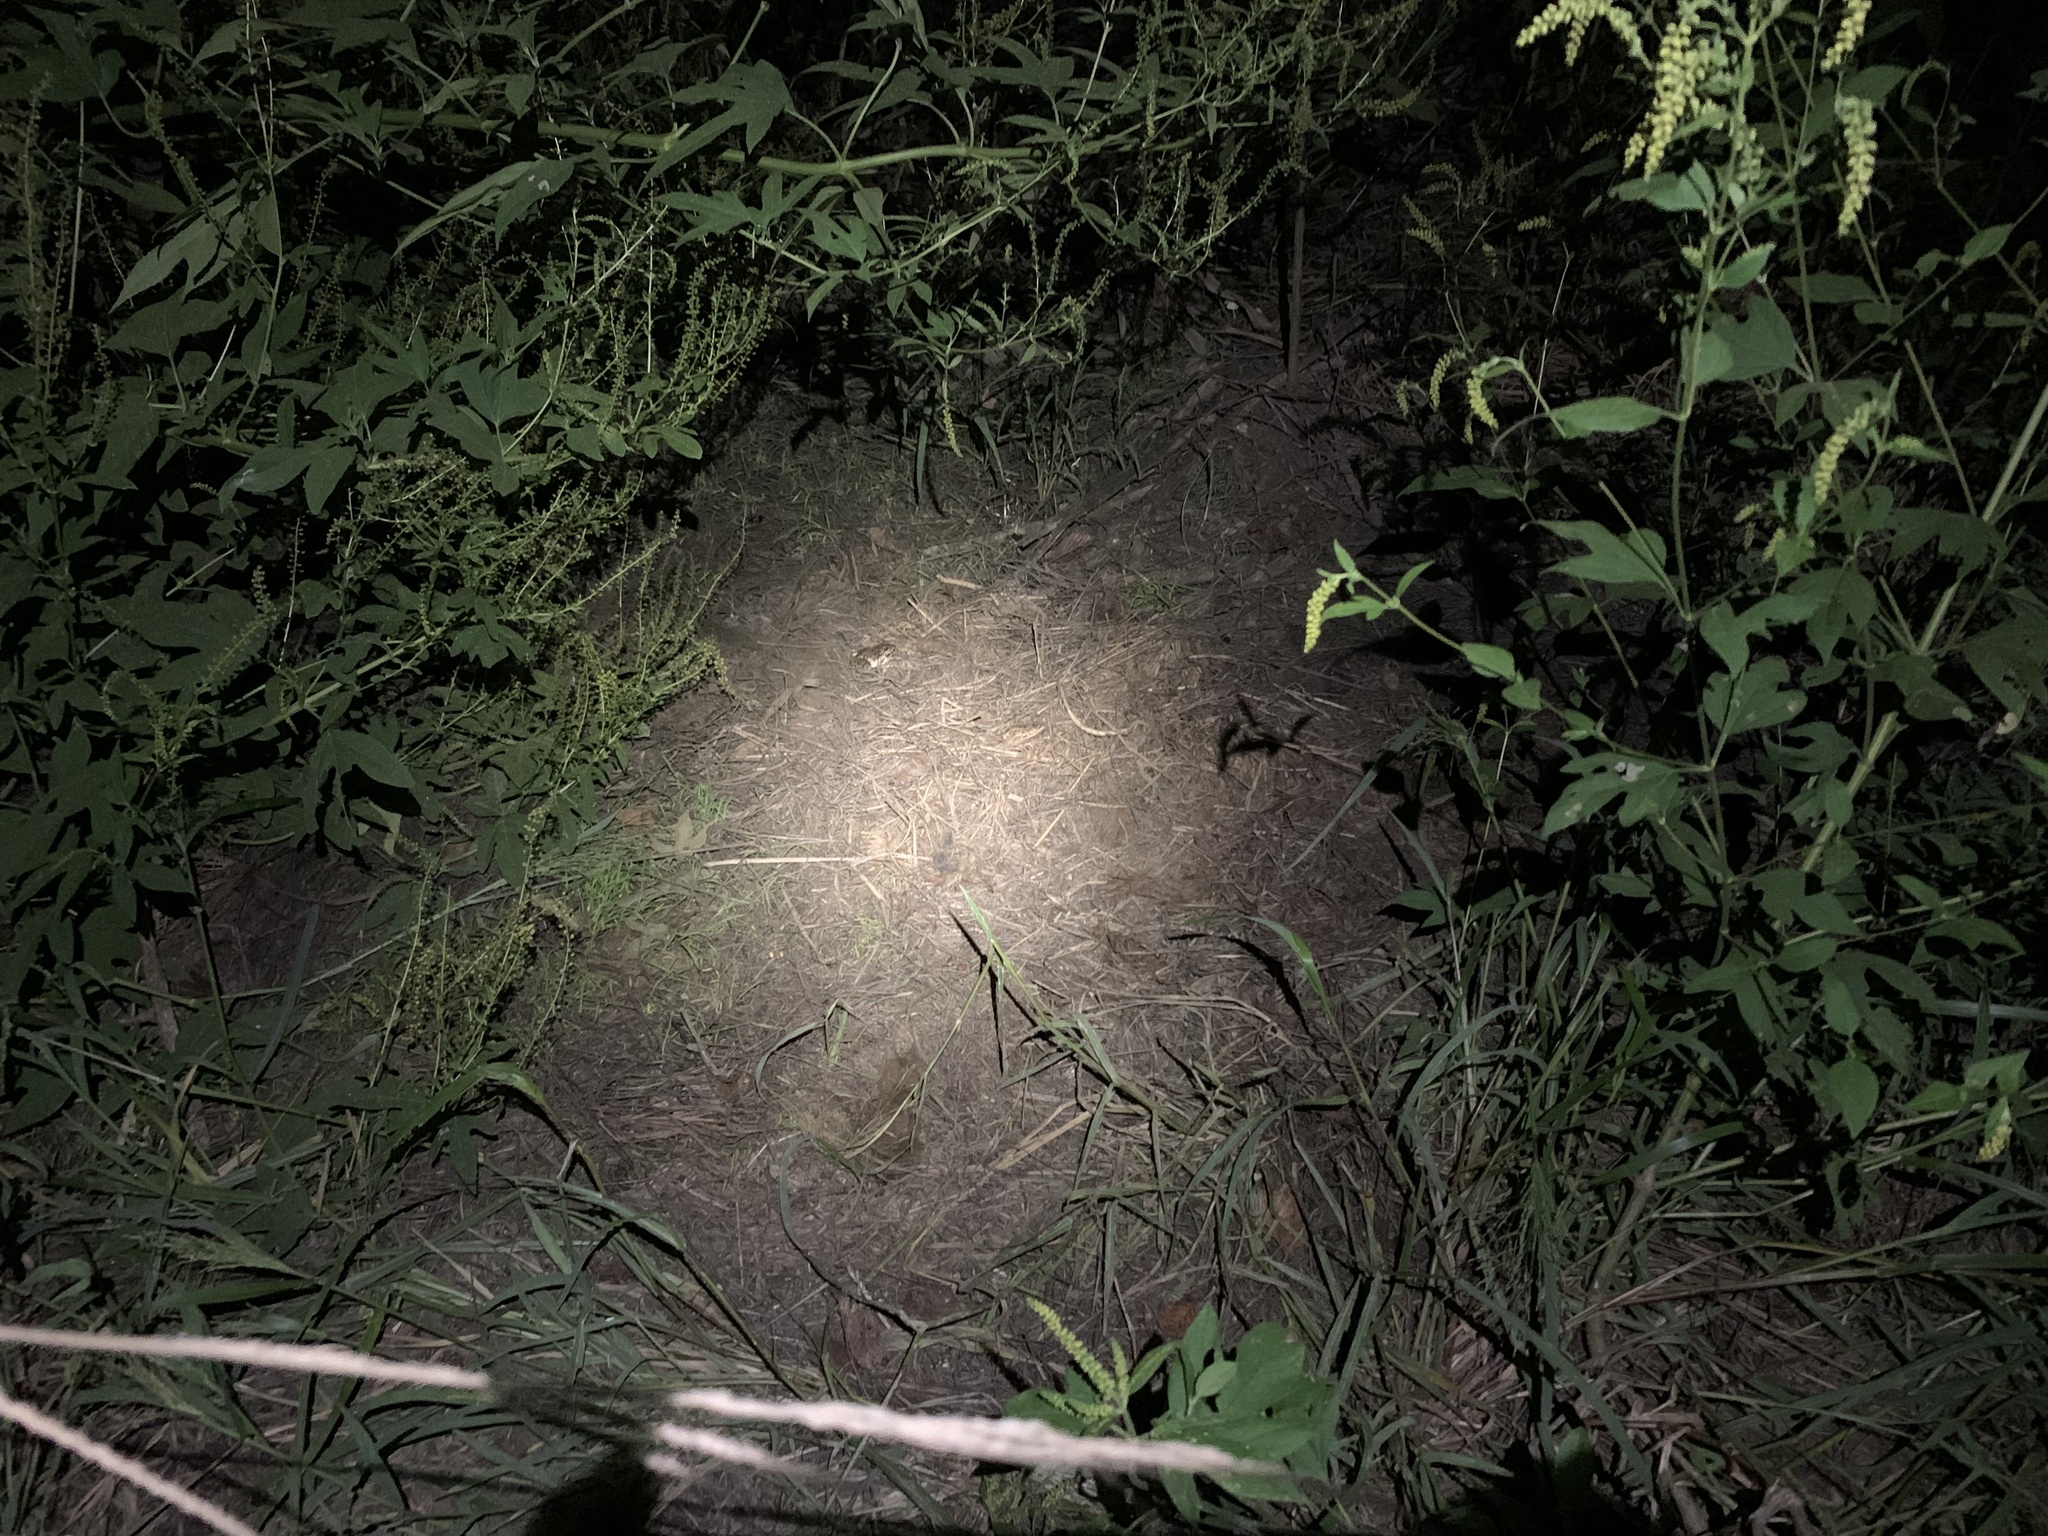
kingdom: Animalia
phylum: Chordata
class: Mammalia
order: Carnivora
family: Canidae
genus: Canis
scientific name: Canis lupus
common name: Gray wolf
